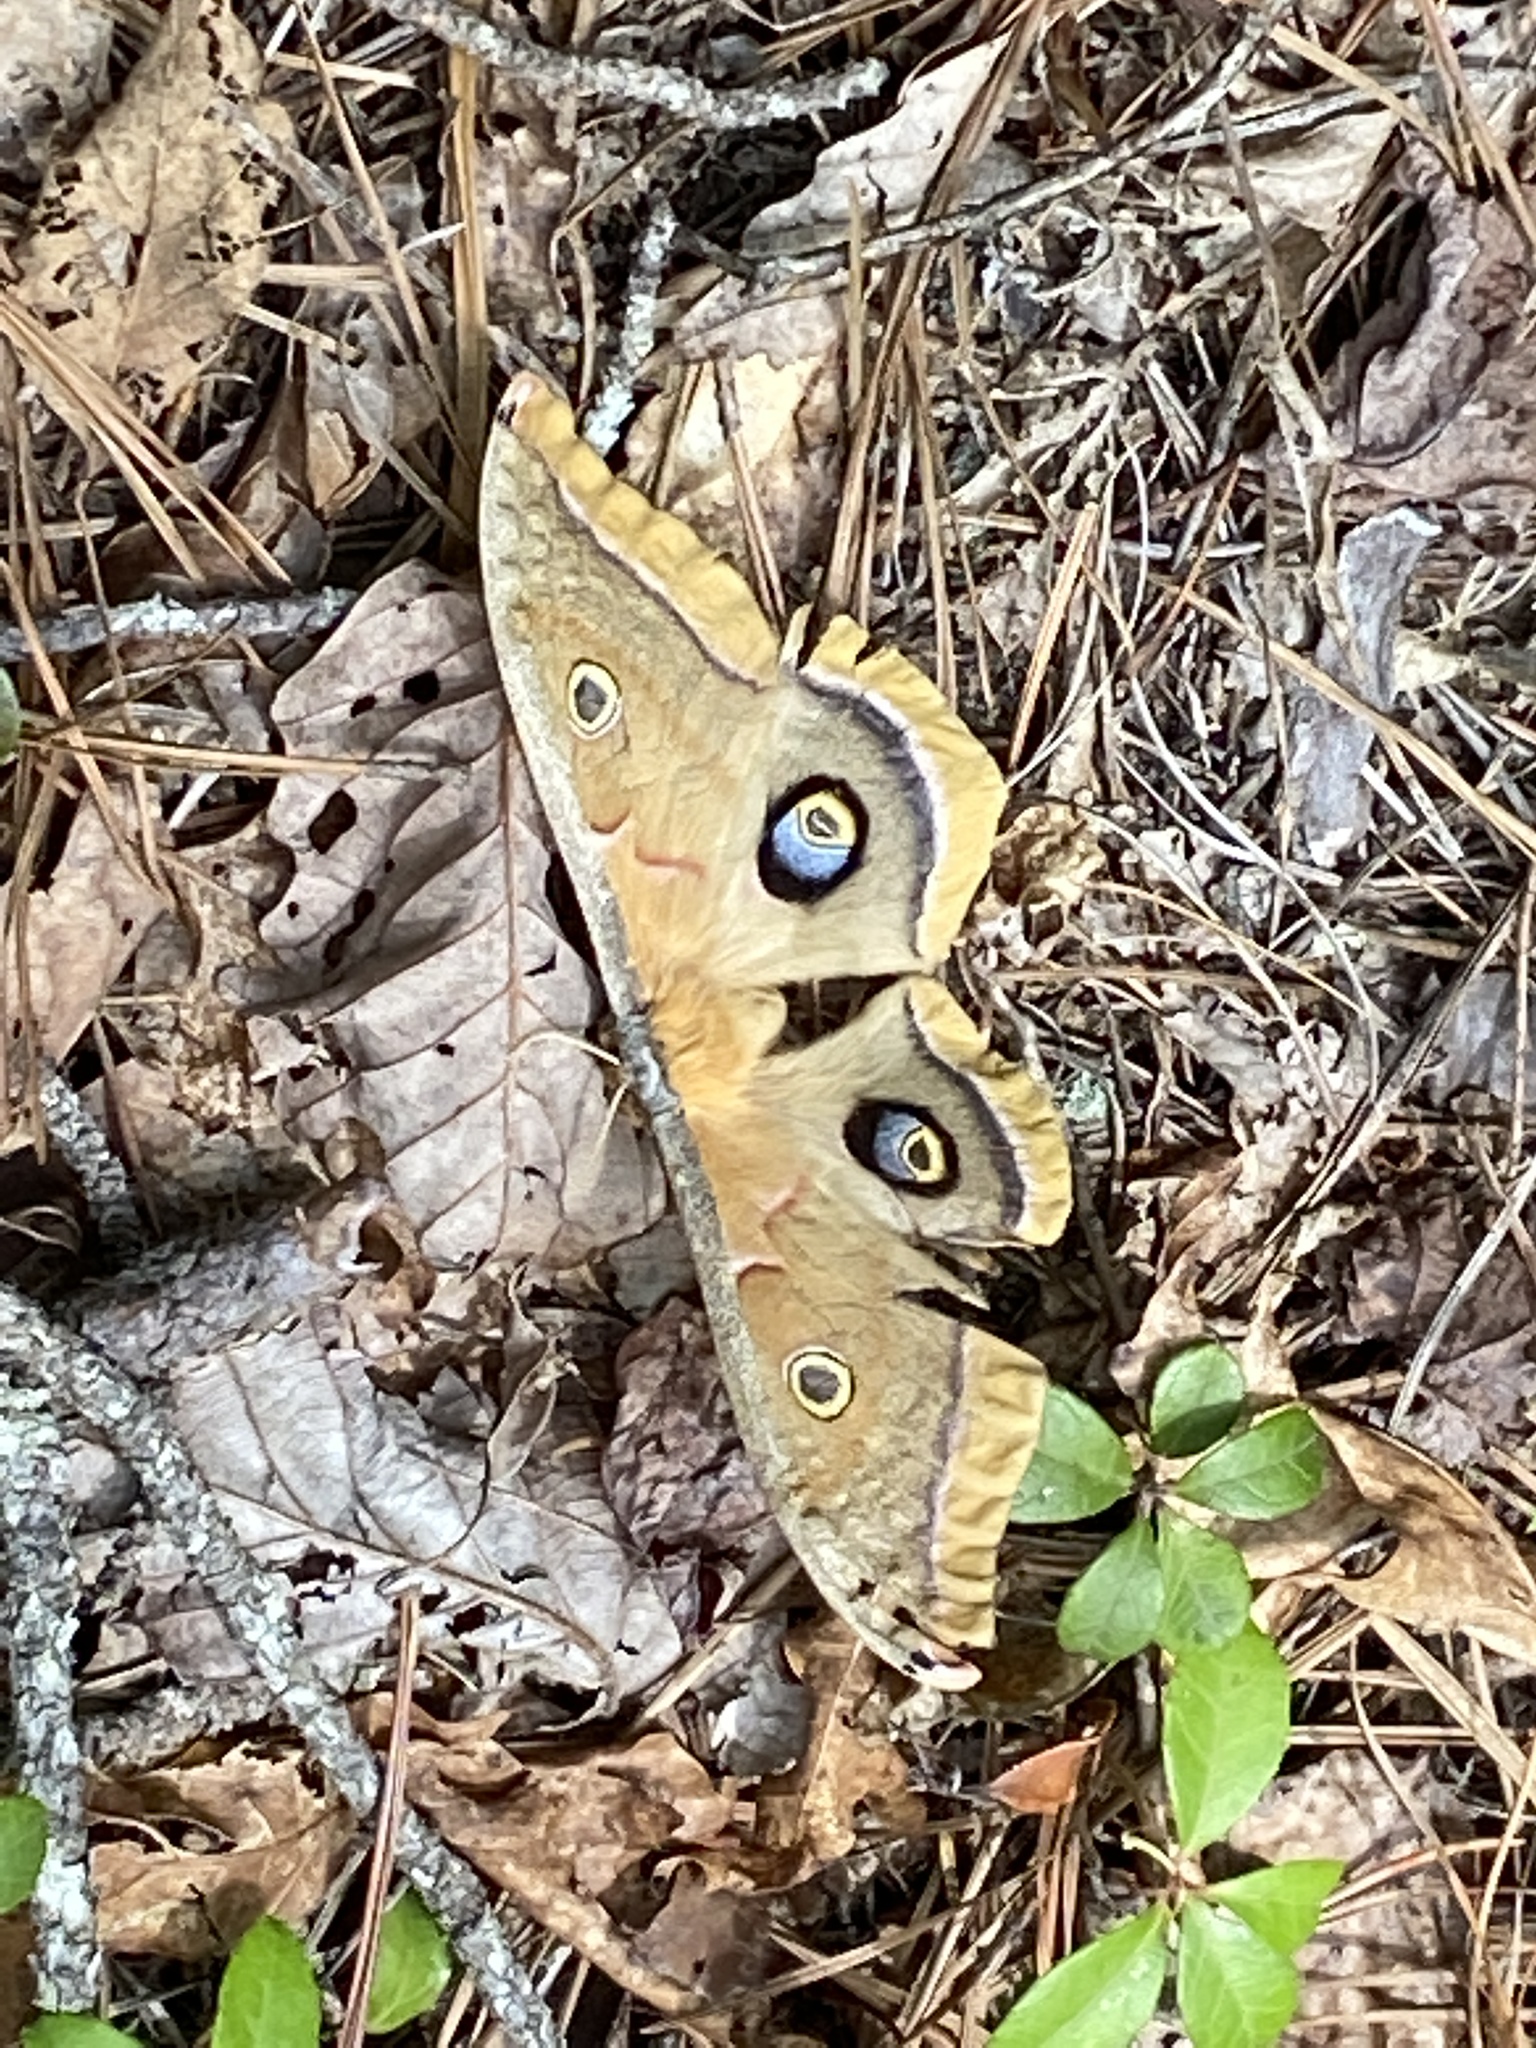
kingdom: Animalia
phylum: Arthropoda
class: Insecta
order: Lepidoptera
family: Saturniidae
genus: Antheraea
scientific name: Antheraea polyphemus
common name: Polyphemus moth
